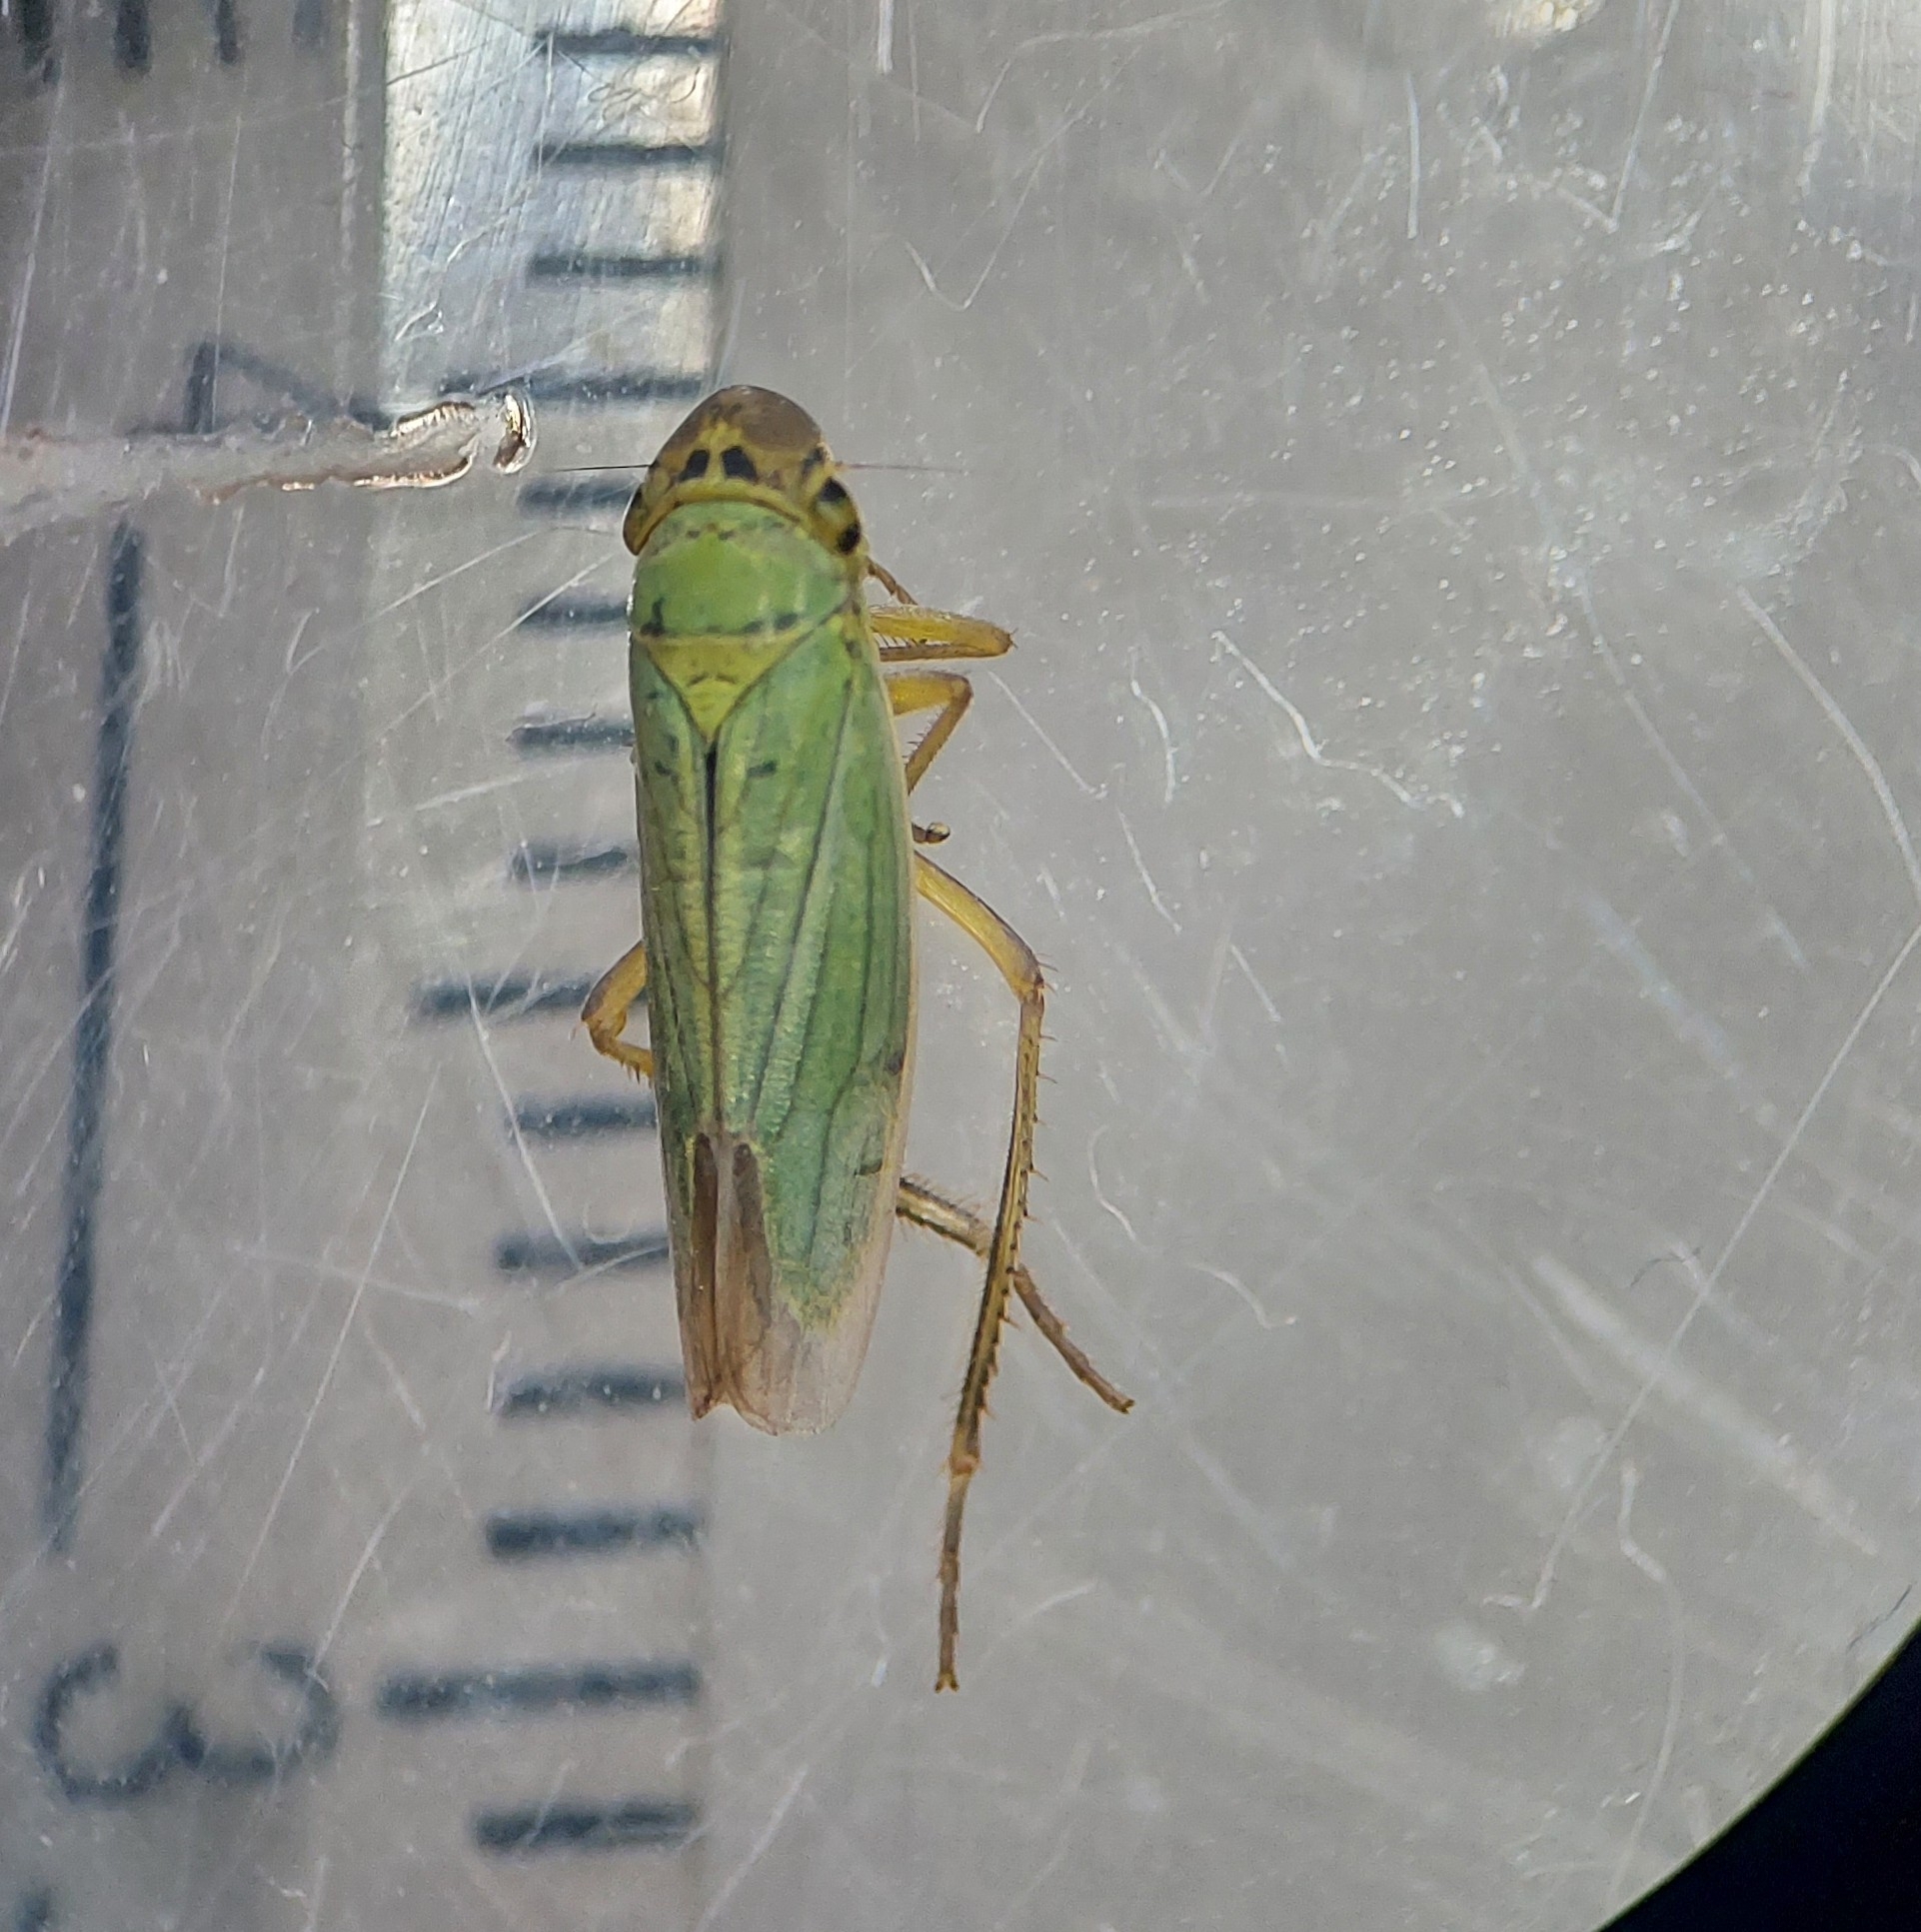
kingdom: Animalia
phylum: Arthropoda
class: Insecta
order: Hemiptera
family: Cicadellidae
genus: Cicadella
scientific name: Cicadella viridis
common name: Leafhopper
